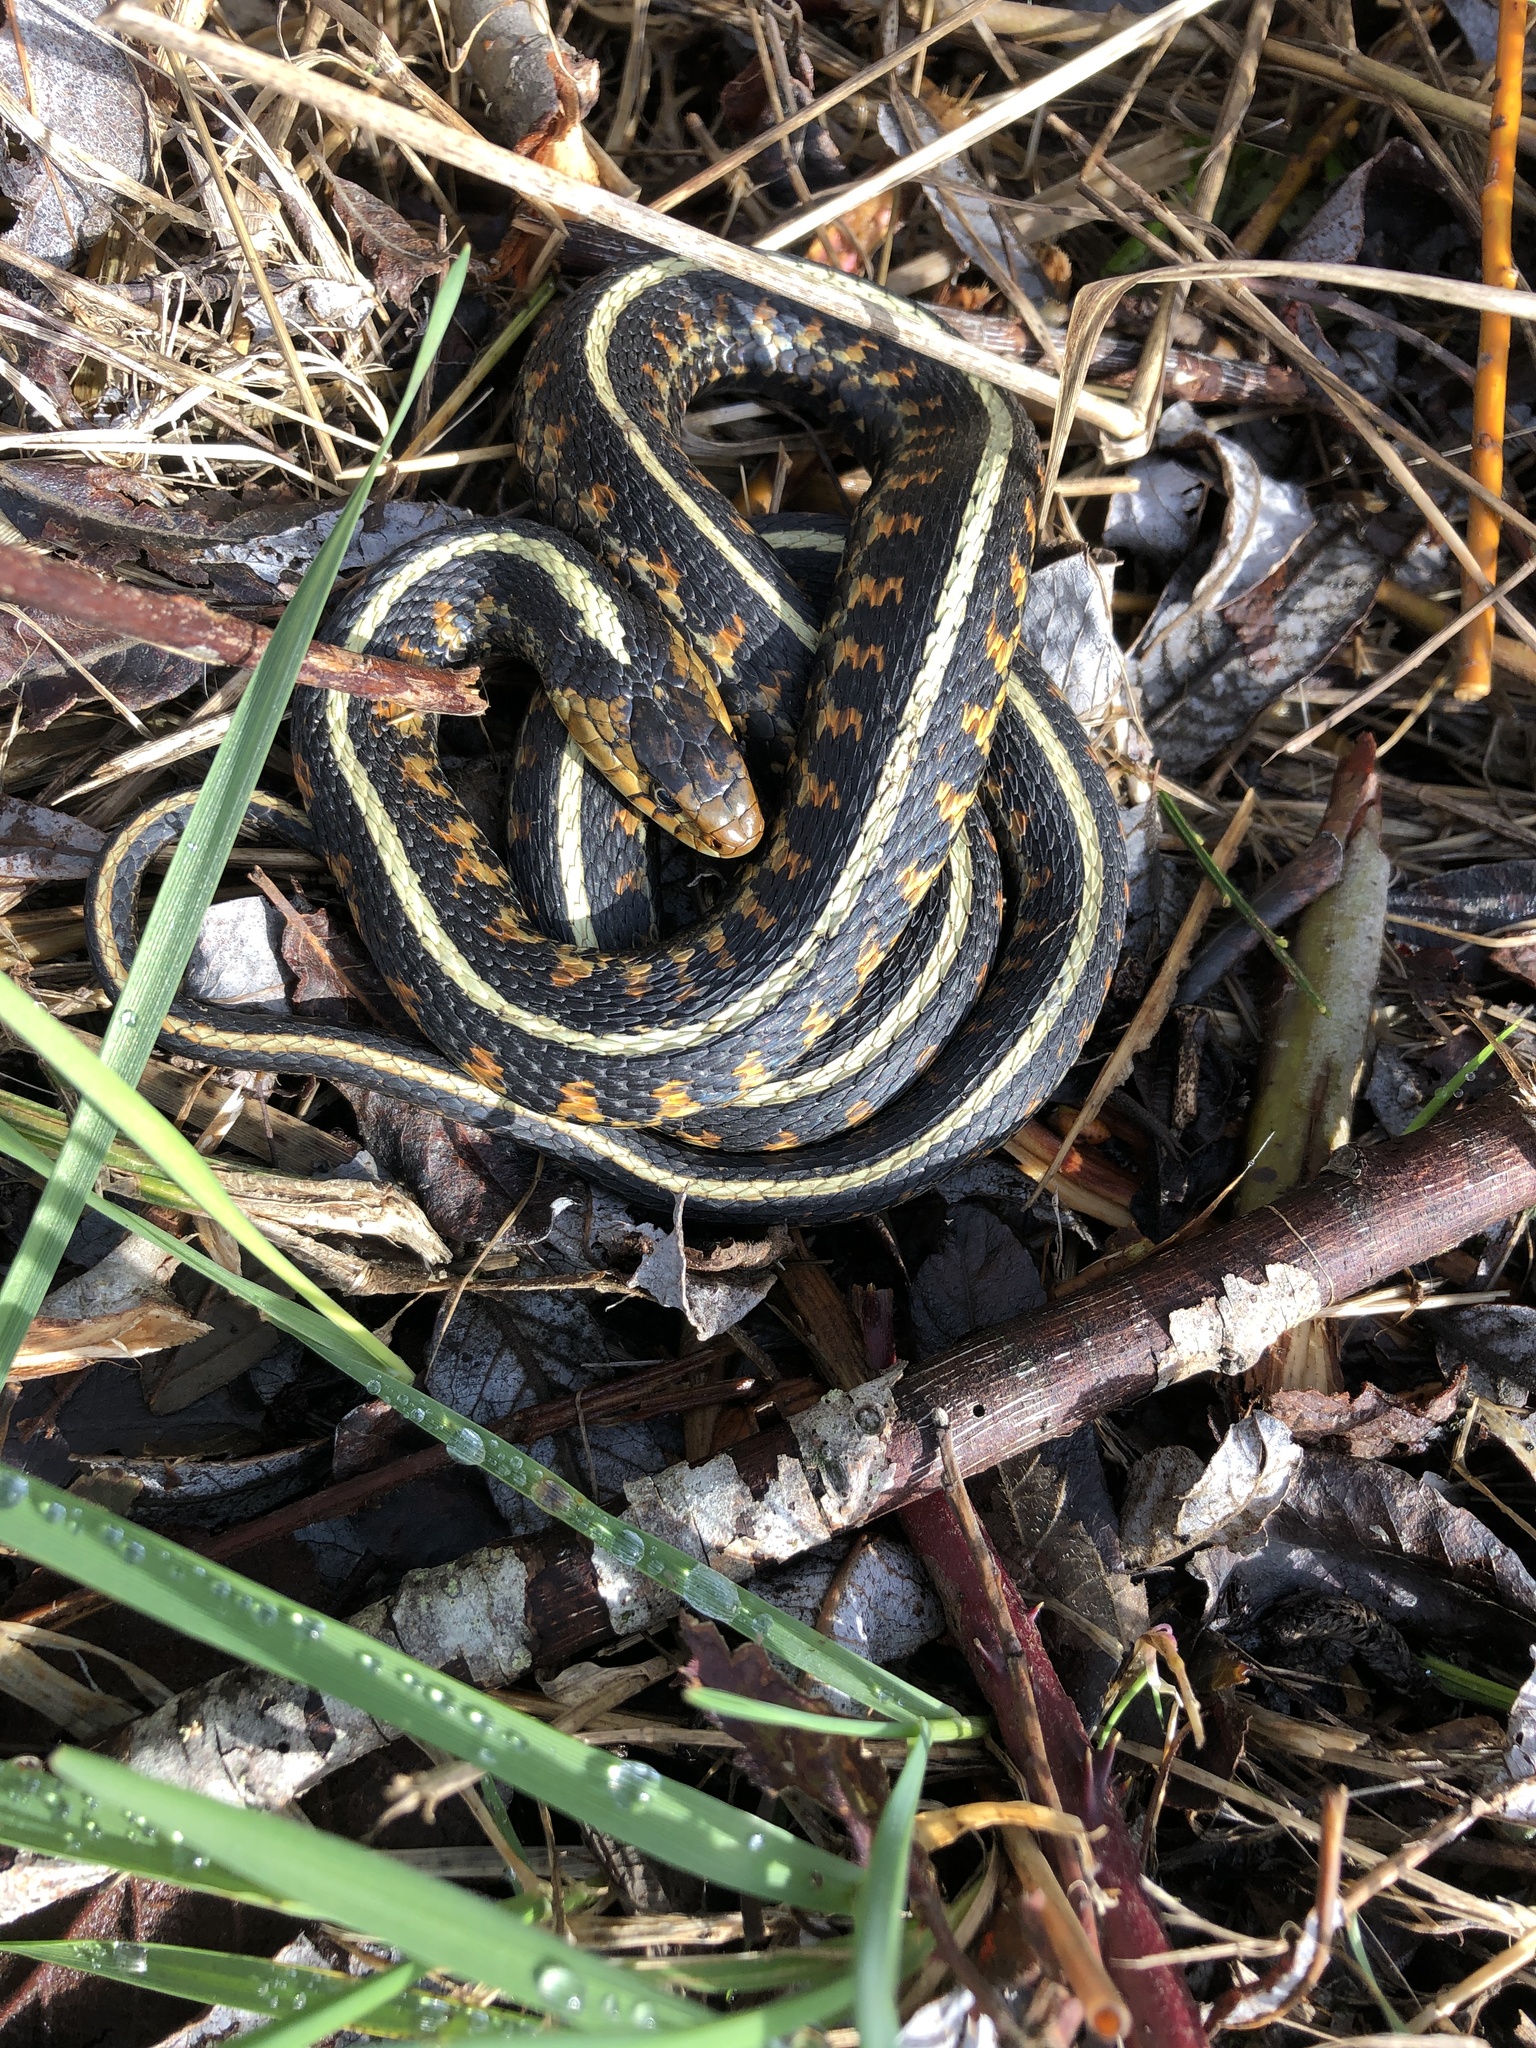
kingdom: Animalia
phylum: Chordata
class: Squamata
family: Colubridae
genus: Thamnophis
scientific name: Thamnophis sirtalis
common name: Common garter snake
